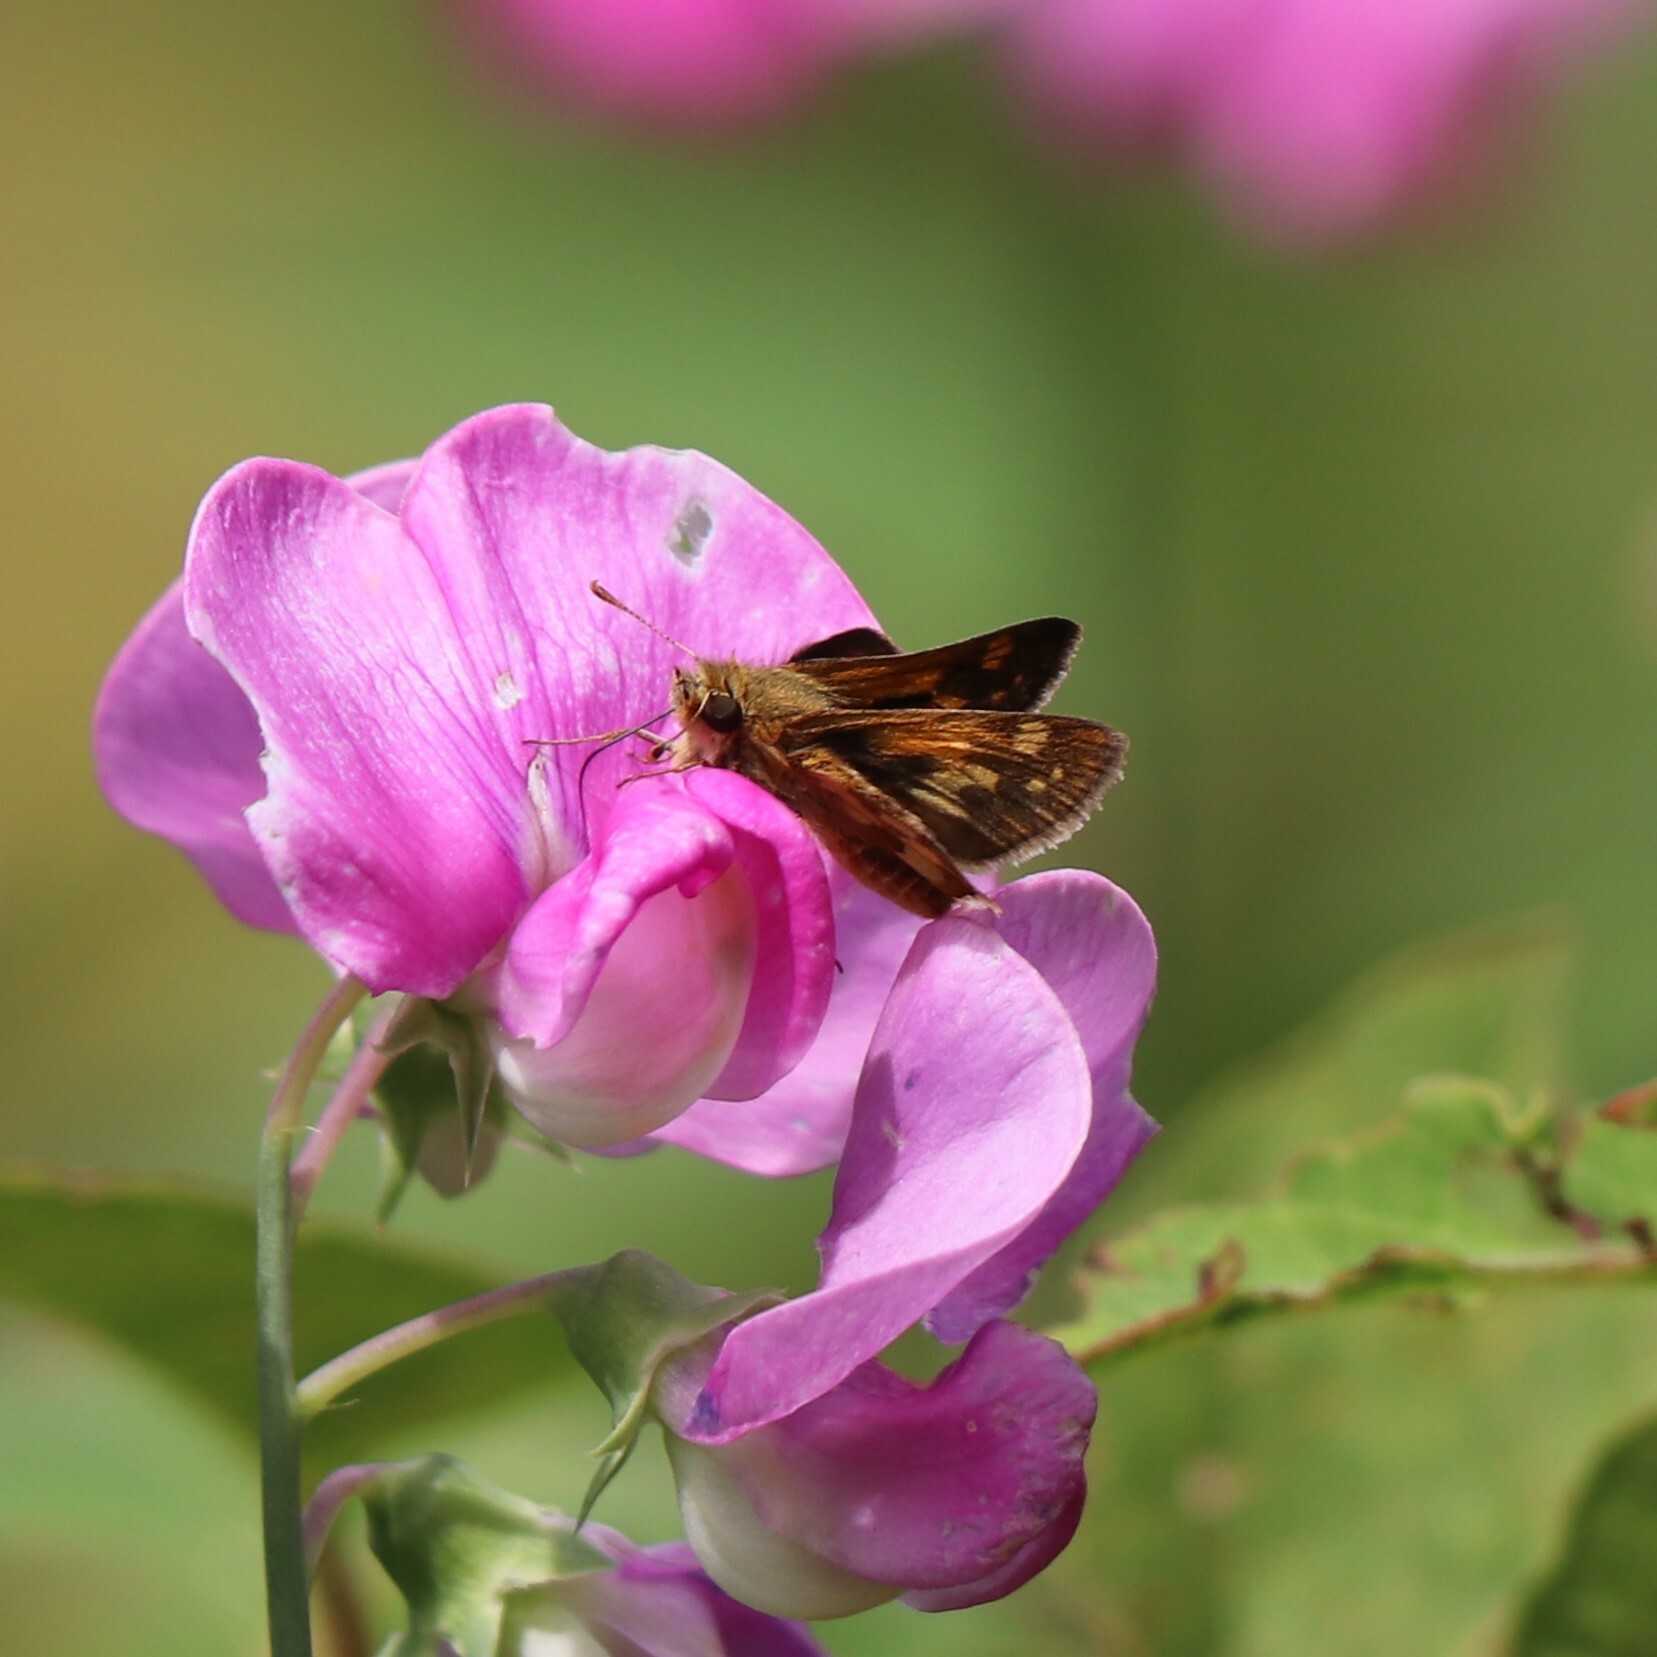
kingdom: Animalia
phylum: Arthropoda
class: Insecta
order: Lepidoptera
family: Hesperiidae
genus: Polites
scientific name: Polites coras
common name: Peck's skipper
